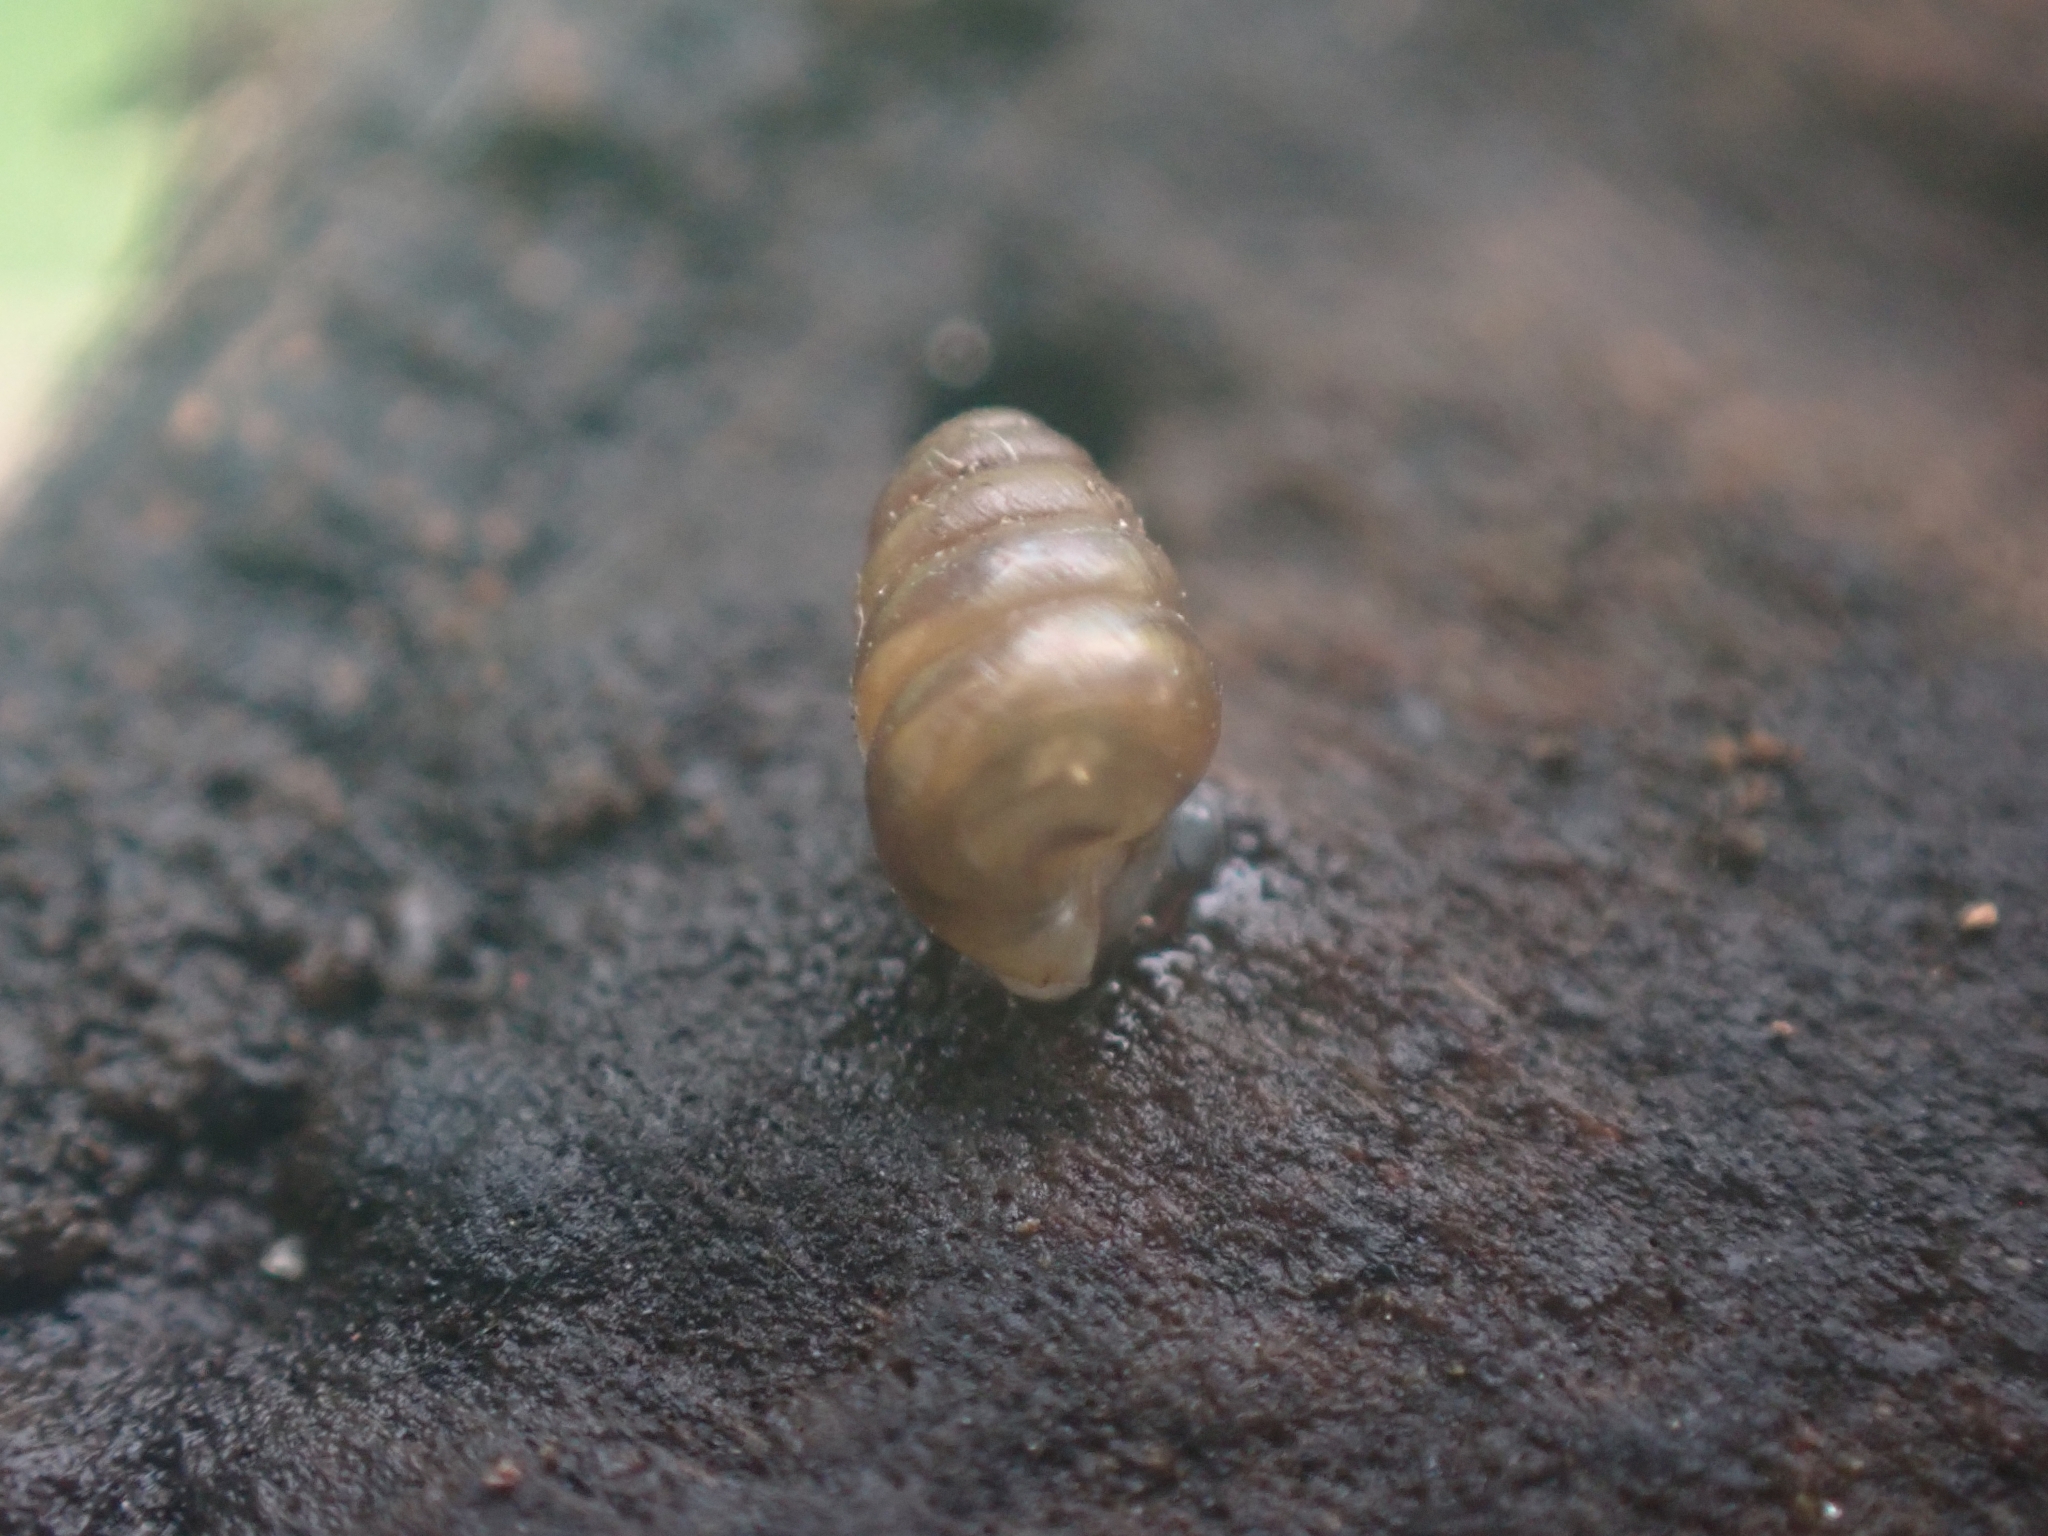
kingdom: Animalia
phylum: Mollusca
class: Gastropoda
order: Stylommatophora
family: Lauriidae
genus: Lauria
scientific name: Lauria cylindracea
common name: Common chrysalis snail
